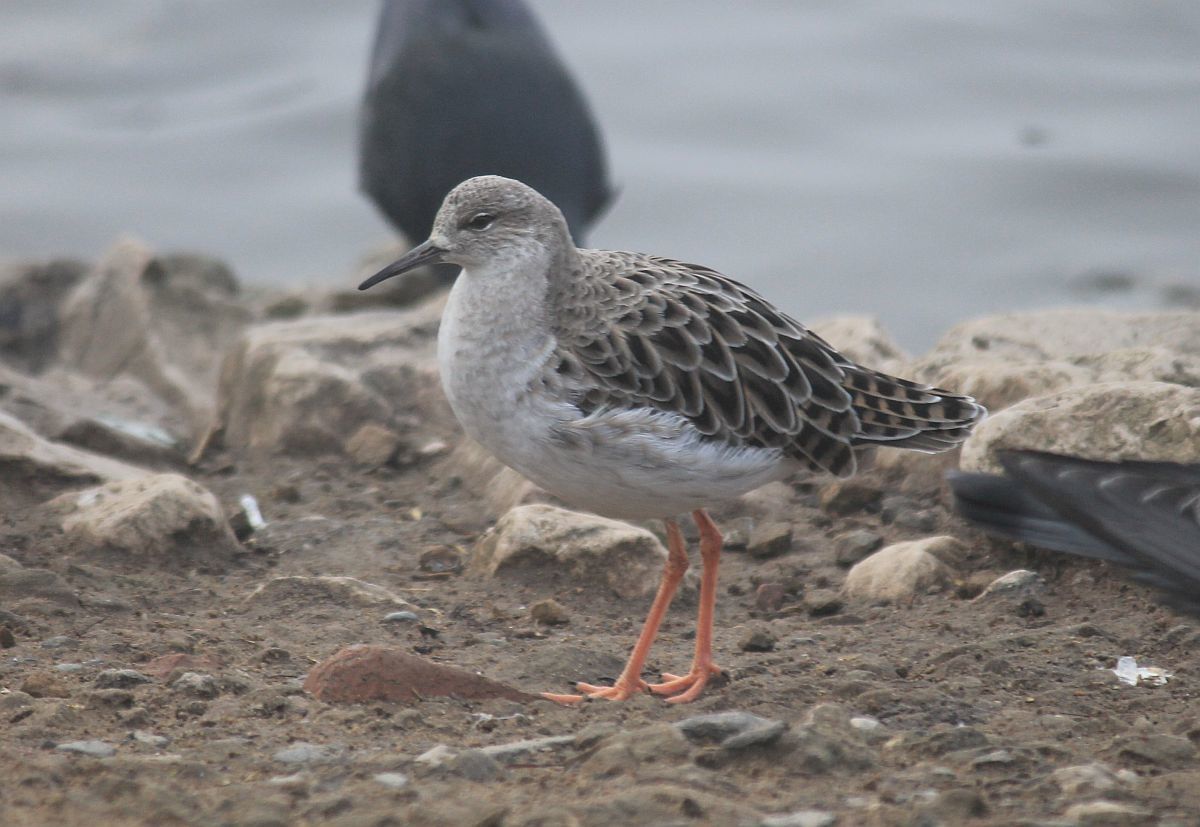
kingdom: Animalia
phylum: Chordata
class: Aves
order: Charadriiformes
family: Scolopacidae
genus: Calidris
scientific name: Calidris pugnax
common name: Ruff
